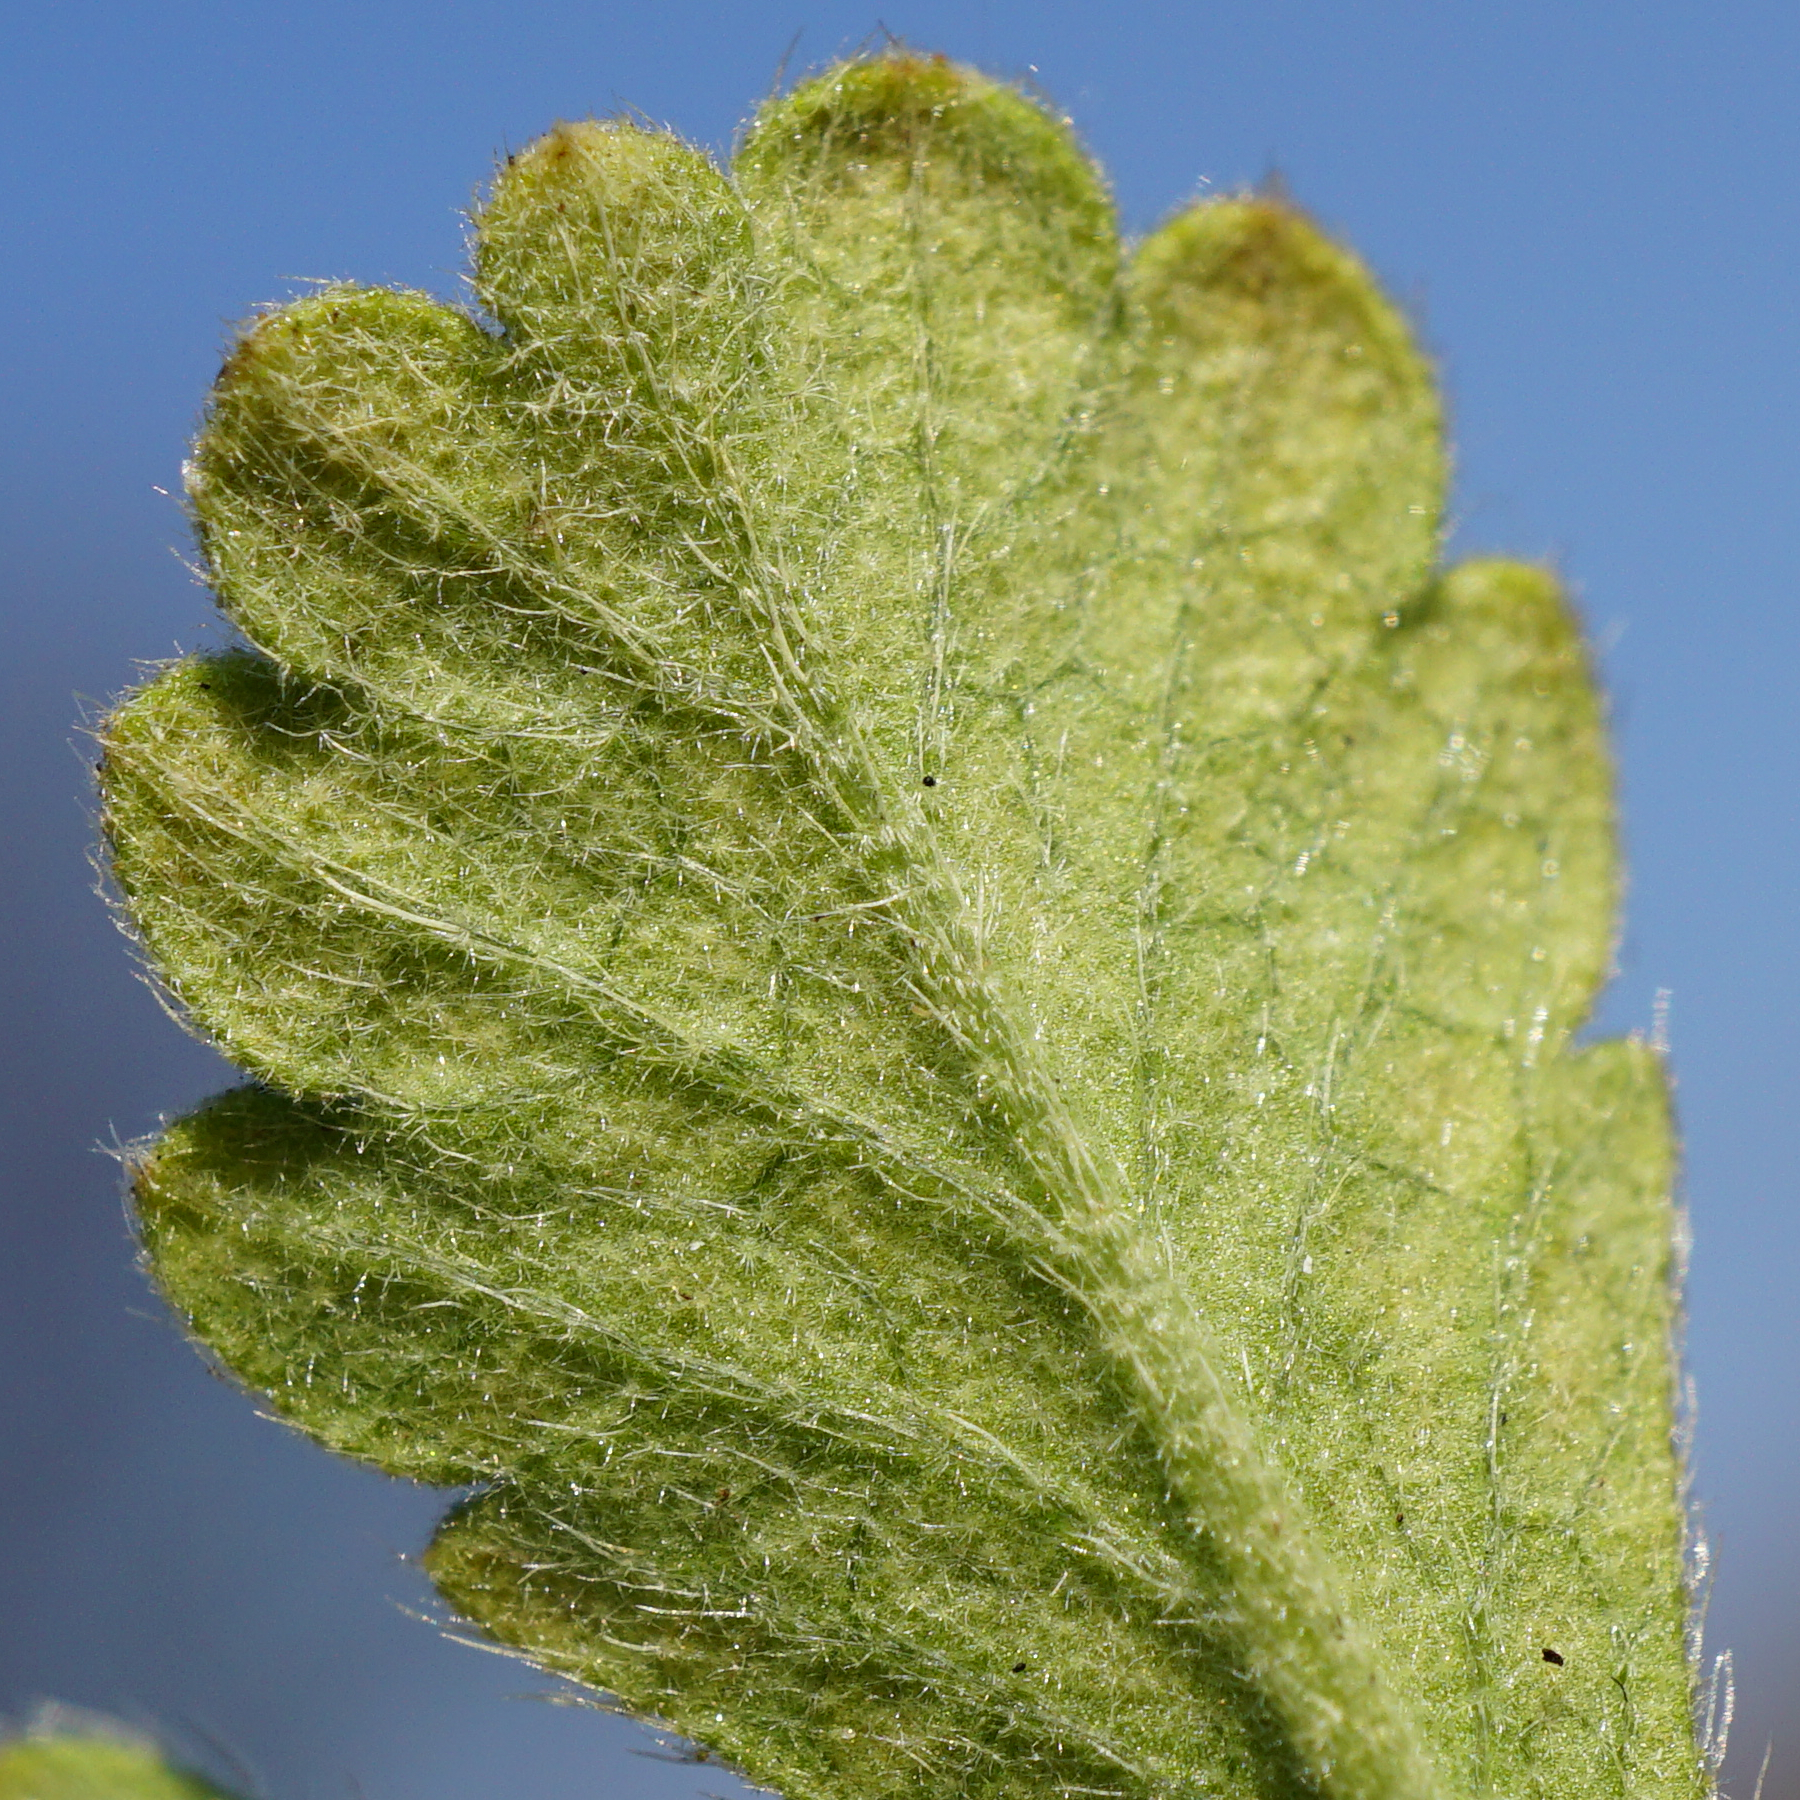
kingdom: Plantae
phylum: Tracheophyta
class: Magnoliopsida
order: Rosales
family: Rosaceae
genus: Potentilla
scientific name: Potentilla incana
